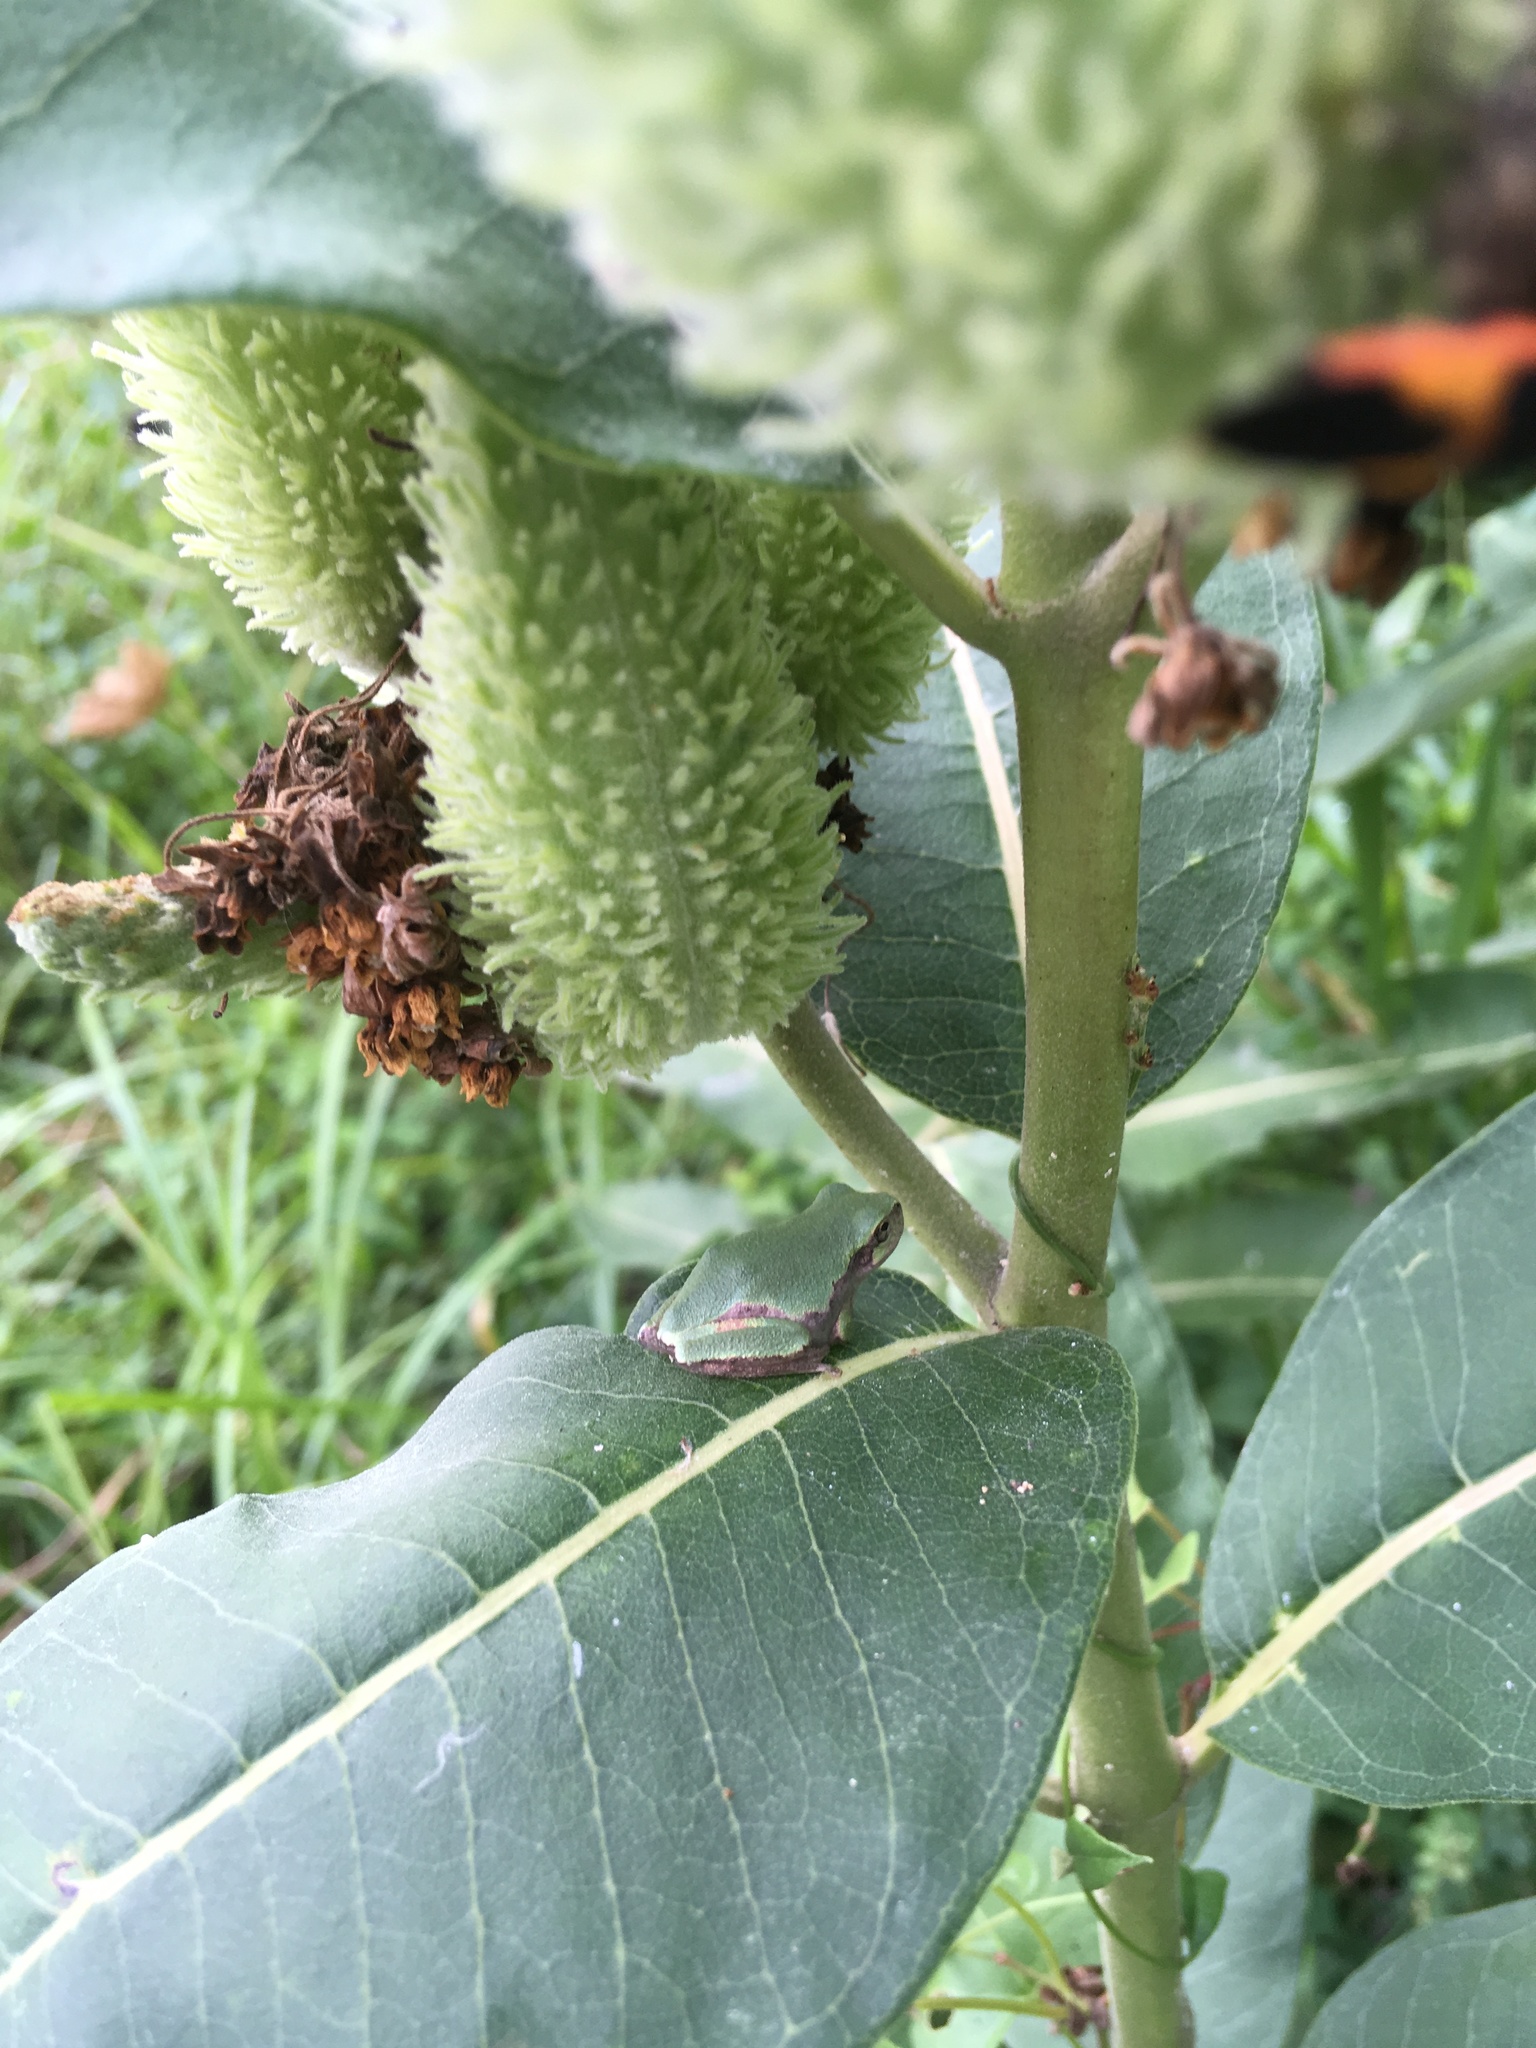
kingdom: Animalia
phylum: Chordata
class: Amphibia
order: Anura
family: Hylidae
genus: Dryophytes
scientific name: Dryophytes chrysoscelis
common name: Cope's gray treefrog
